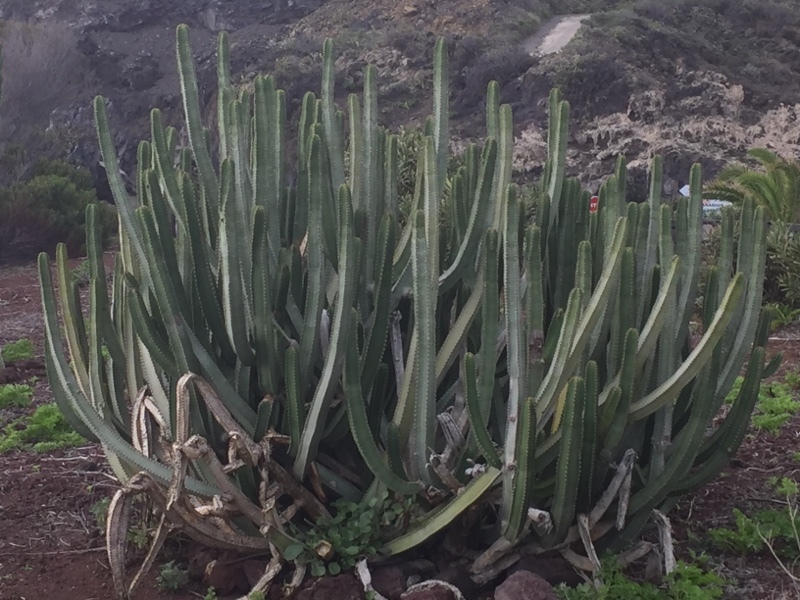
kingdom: Plantae
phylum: Tracheophyta
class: Magnoliopsida
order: Malpighiales
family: Euphorbiaceae
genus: Euphorbia
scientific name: Euphorbia canariensis
